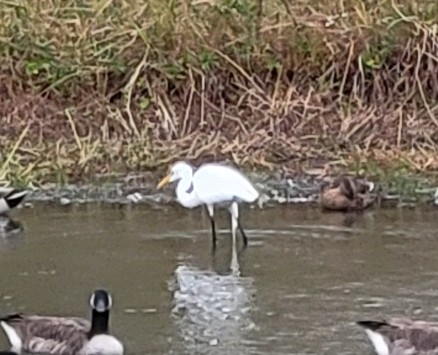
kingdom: Animalia
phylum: Chordata
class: Aves
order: Pelecaniformes
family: Ardeidae
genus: Ardea
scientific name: Ardea alba
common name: Great egret
